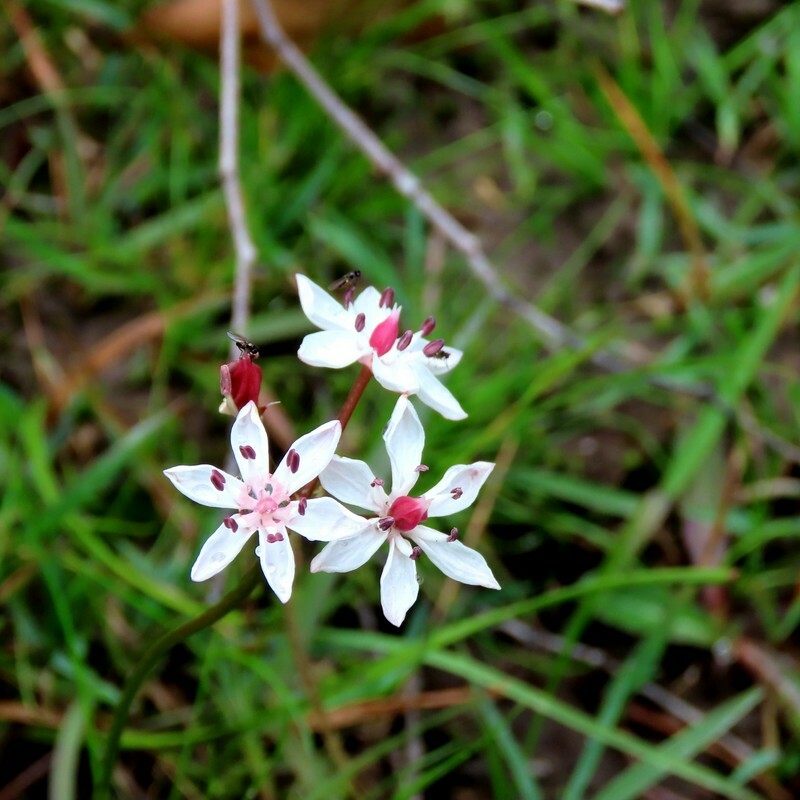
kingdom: Plantae
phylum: Tracheophyta
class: Liliopsida
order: Liliales
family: Colchicaceae
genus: Burchardia
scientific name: Burchardia umbellata
